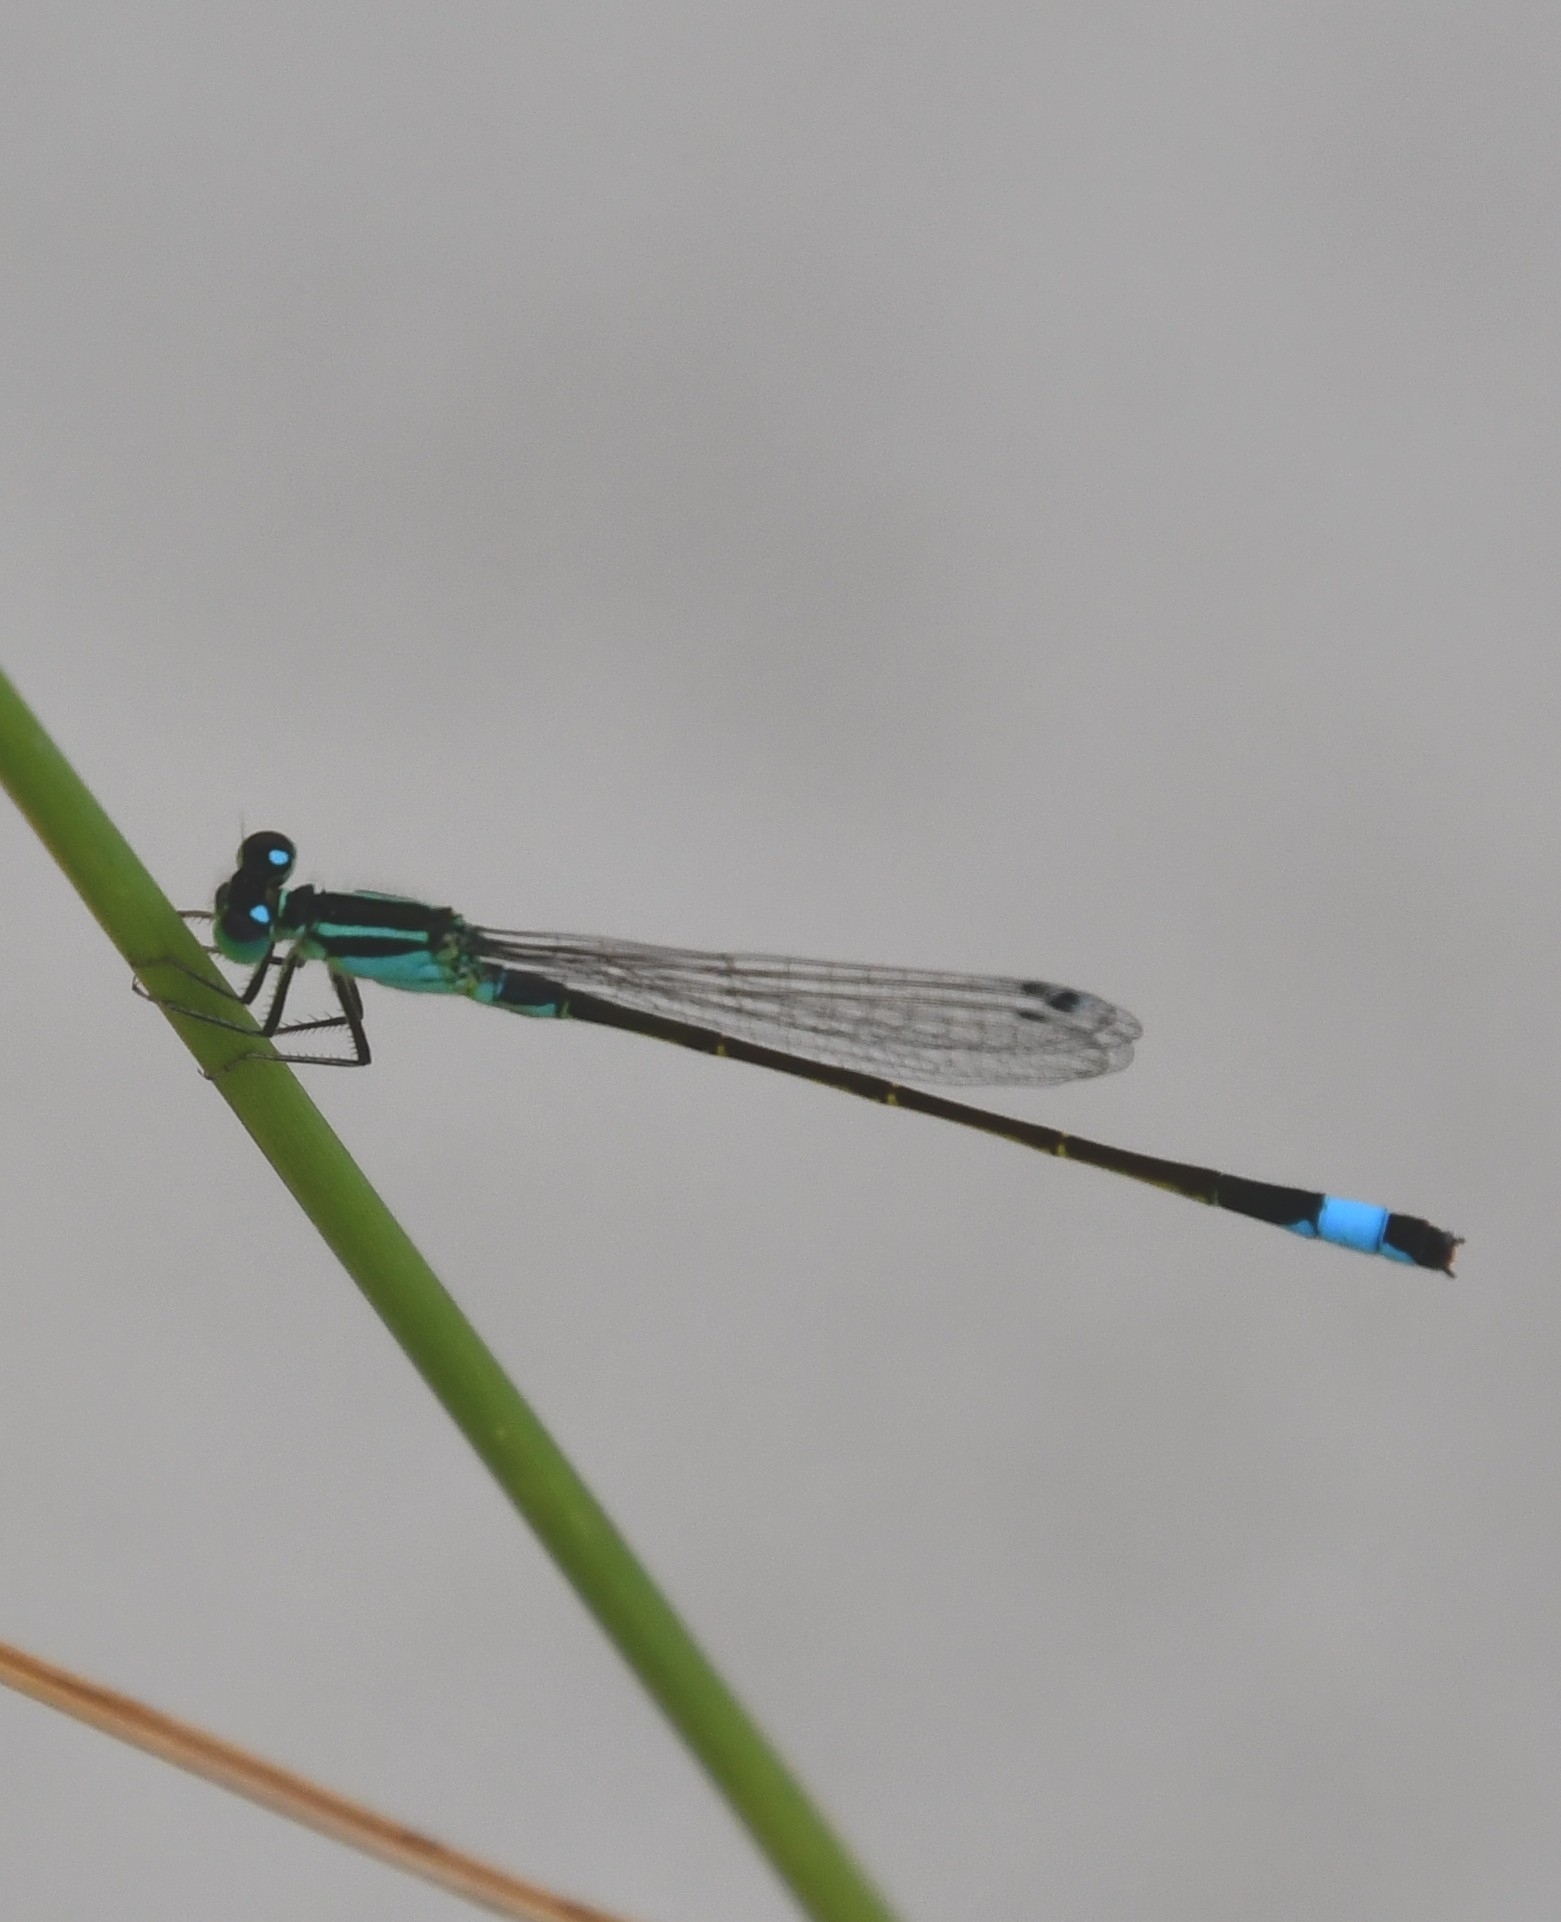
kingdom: Animalia
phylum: Arthropoda
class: Insecta
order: Odonata
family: Coenagrionidae
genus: Ischnura
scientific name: Ischnura elegans
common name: Blue-tailed damselfly
